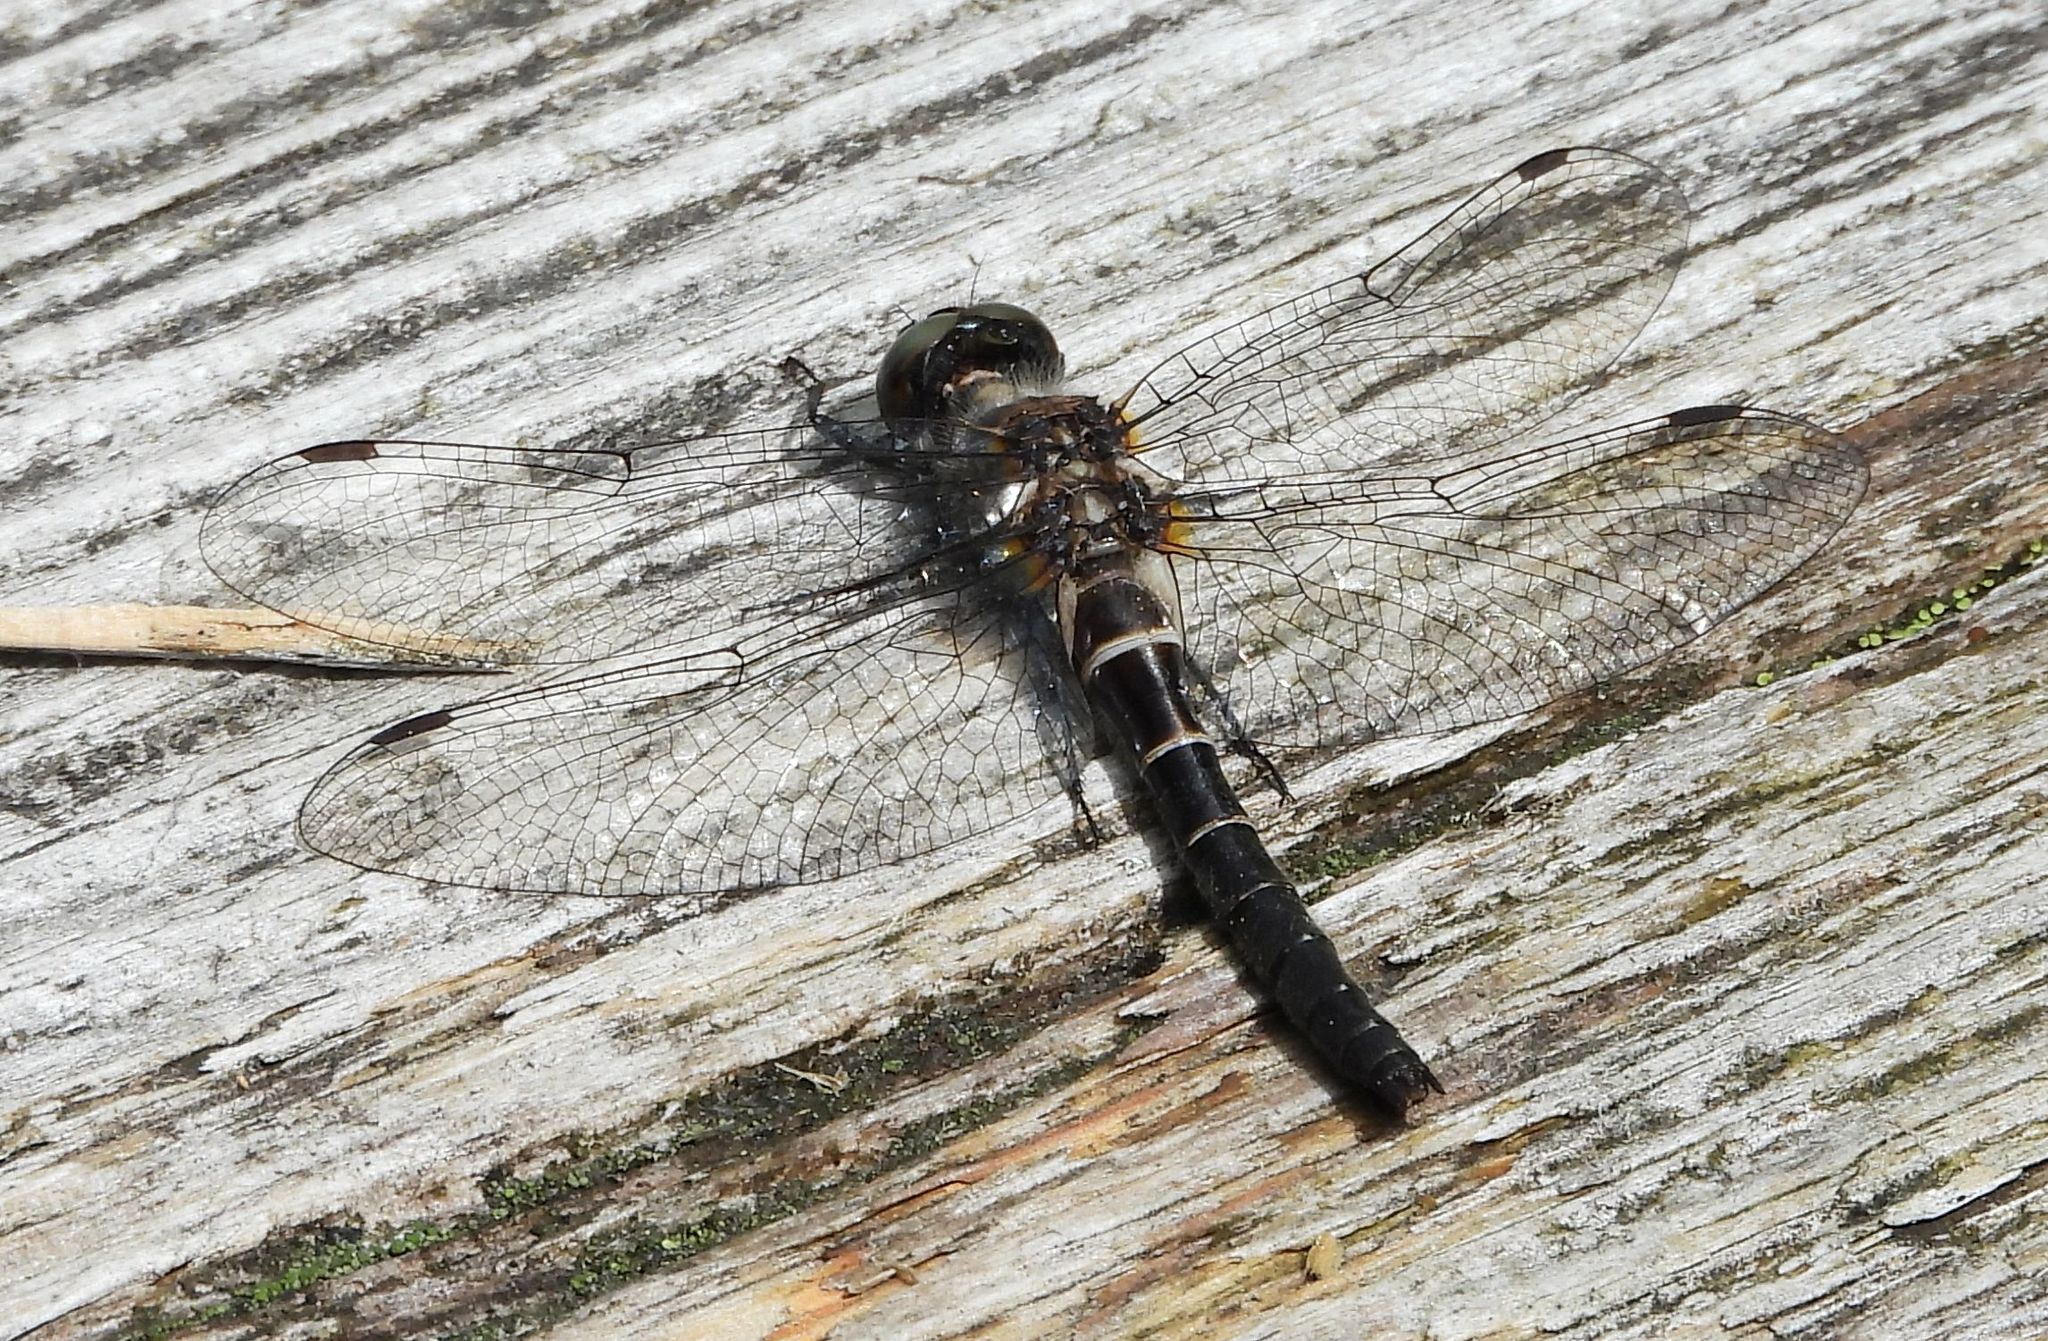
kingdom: Animalia
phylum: Arthropoda
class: Insecta
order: Odonata
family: Corduliidae
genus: Williamsonia
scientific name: Williamsonia fletcheri
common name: Ebony boghaunter
